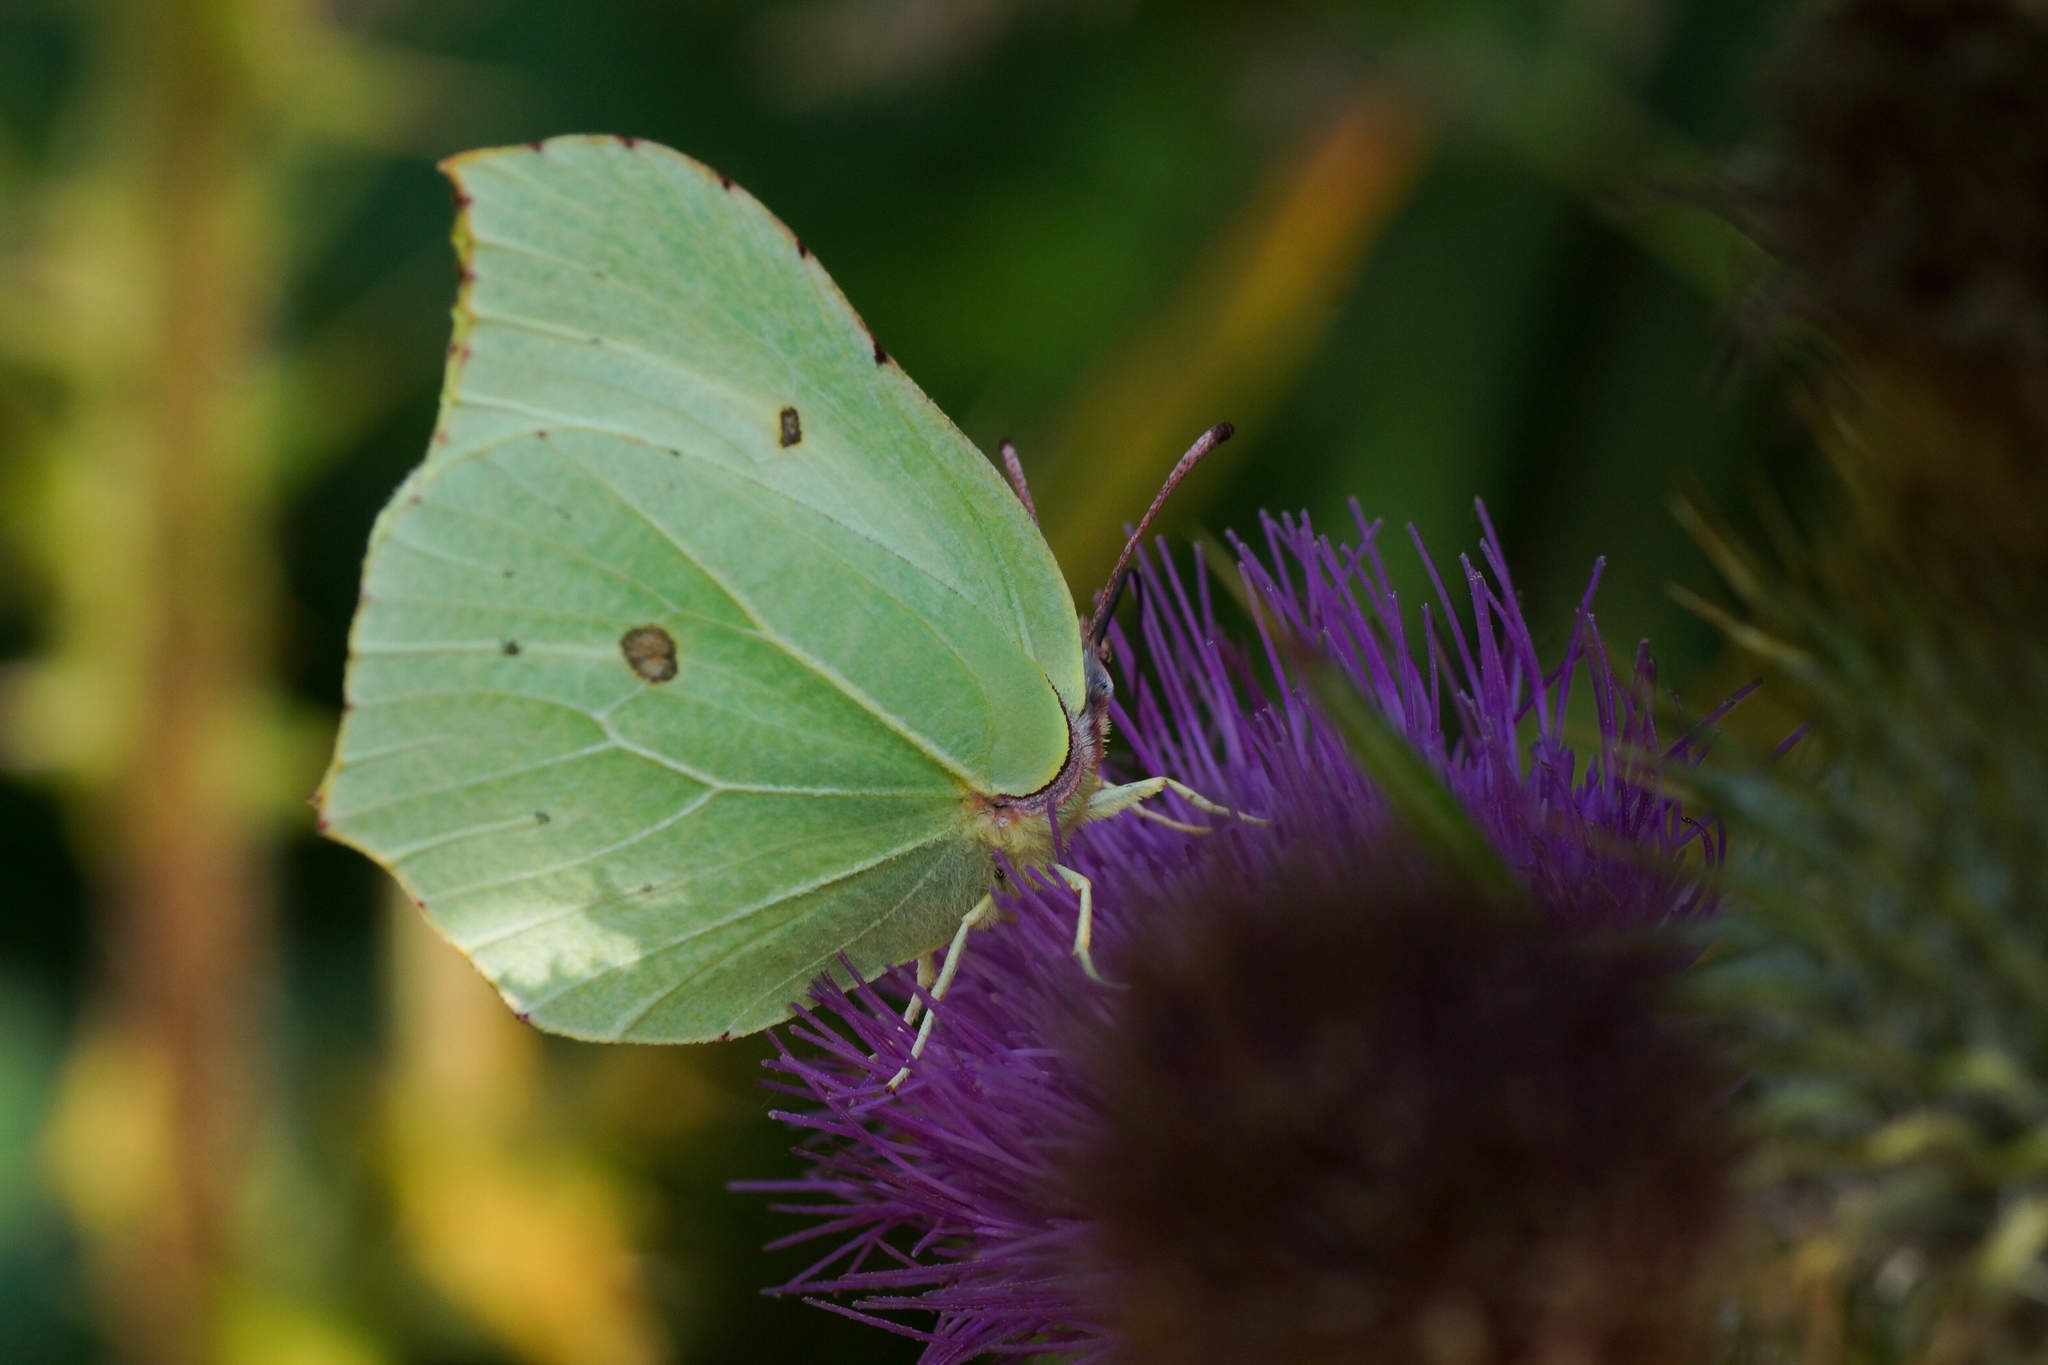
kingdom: Animalia
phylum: Arthropoda
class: Insecta
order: Lepidoptera
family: Pieridae
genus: Gonepteryx
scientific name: Gonepteryx rhamni
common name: Brimstone
